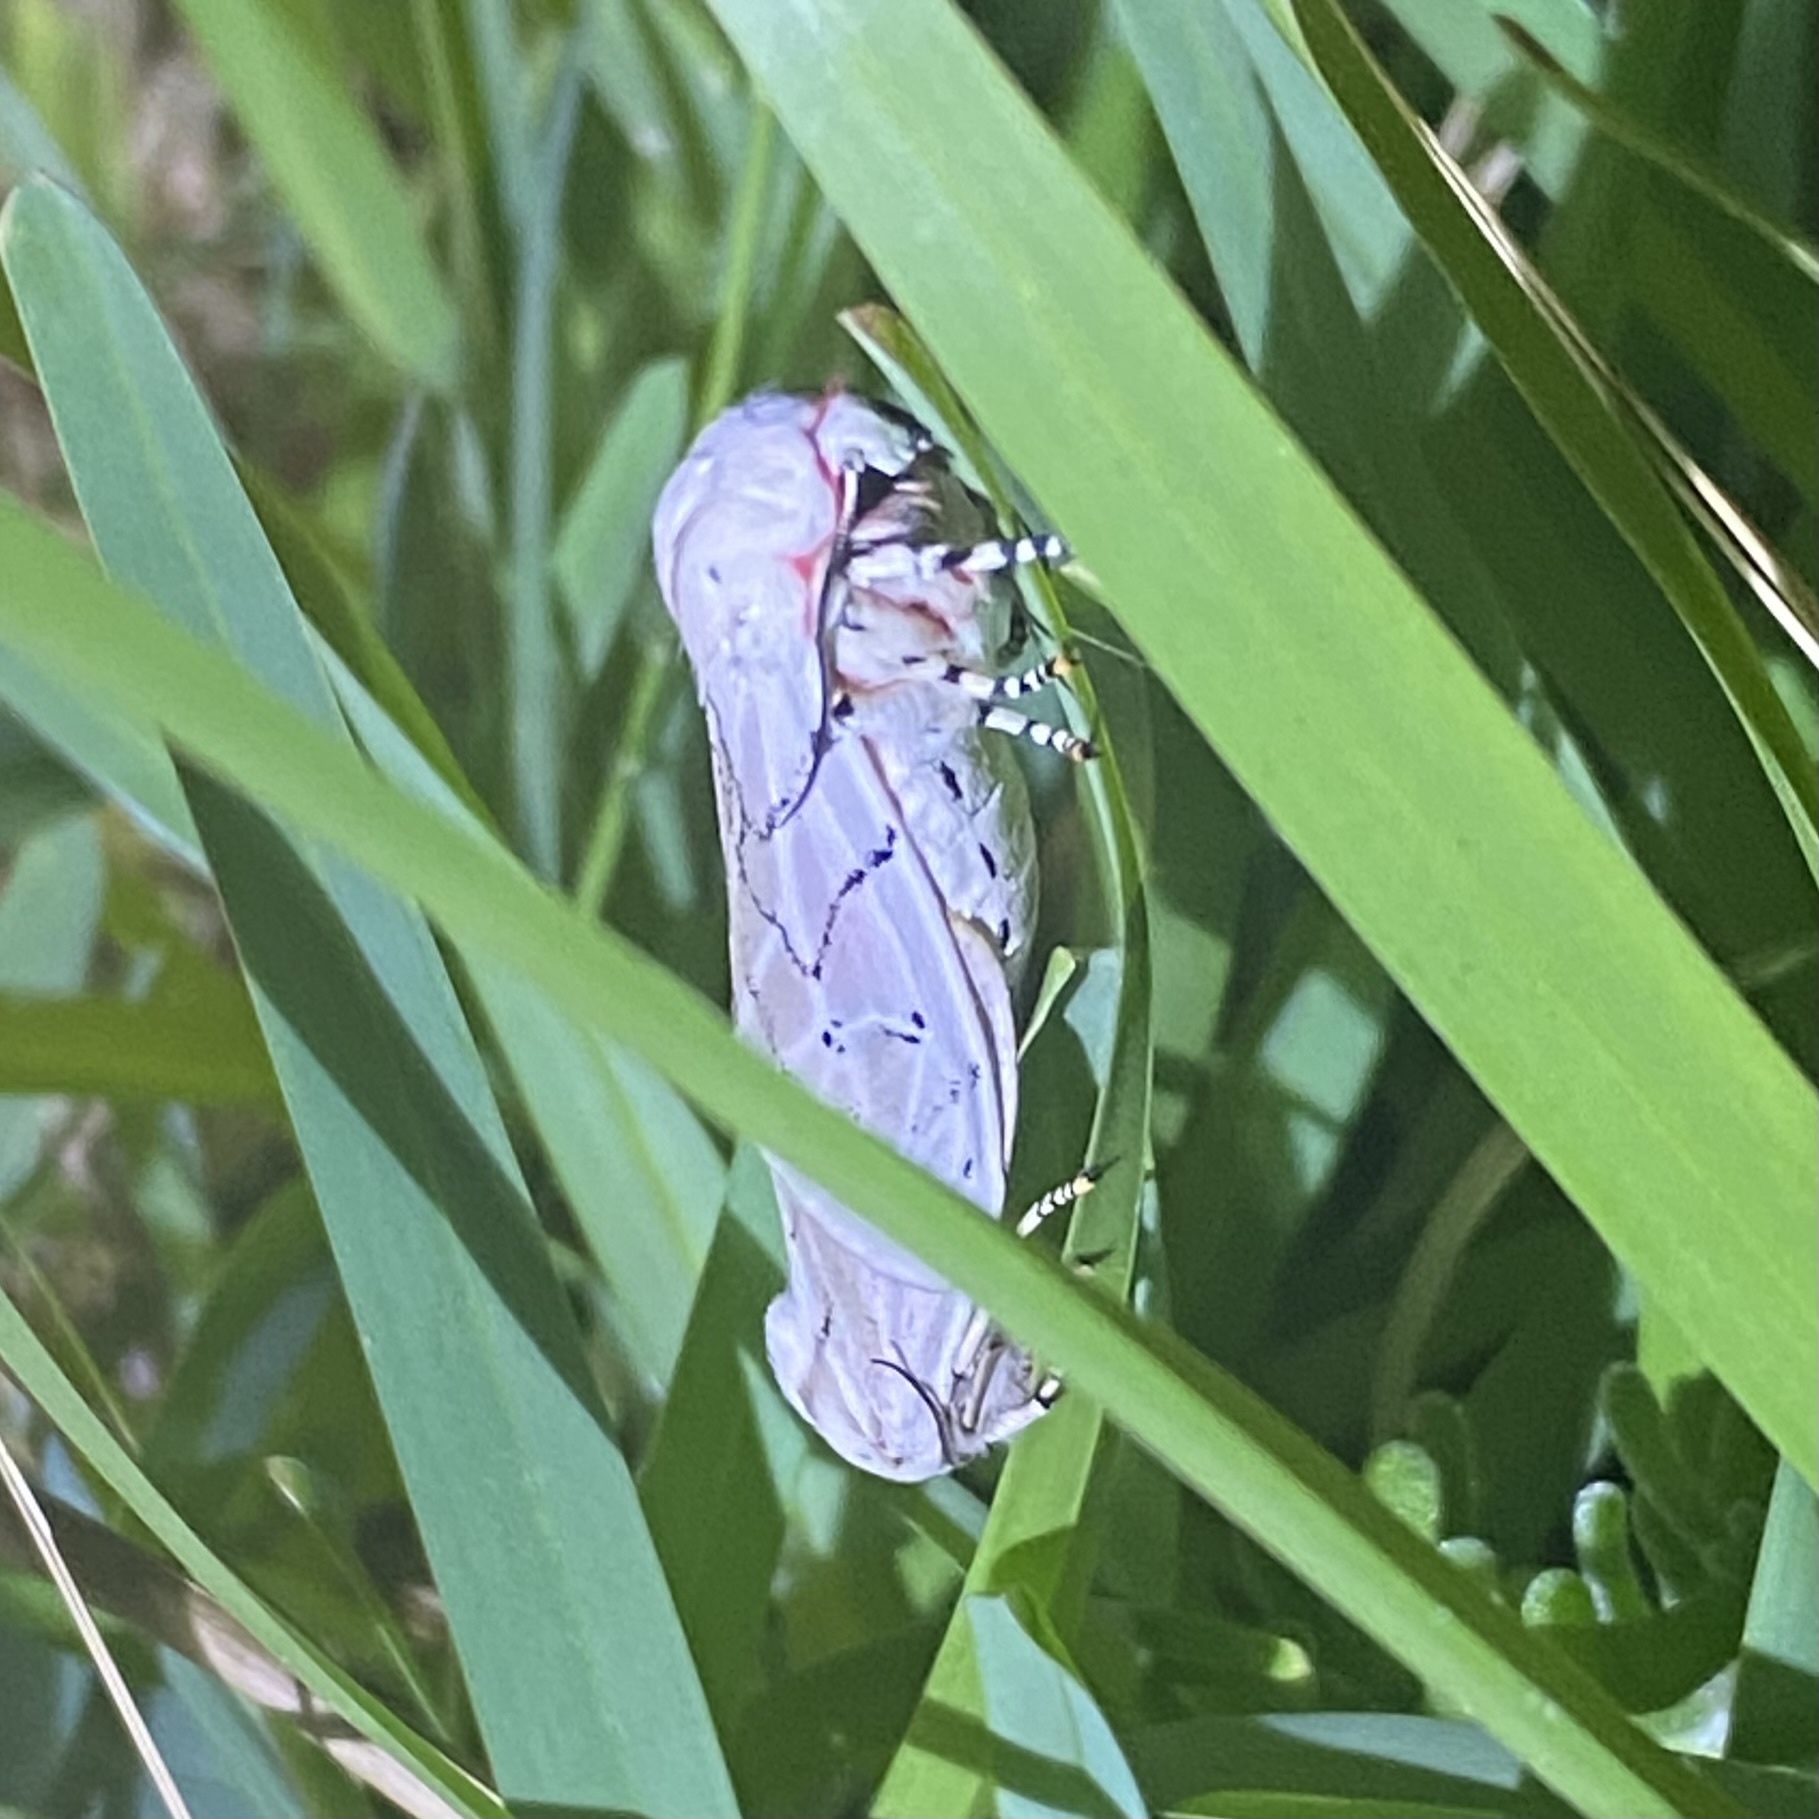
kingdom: Animalia
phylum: Arthropoda
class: Insecta
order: Lepidoptera
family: Erebidae
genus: Rhodogastria
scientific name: Rhodogastria amasis
